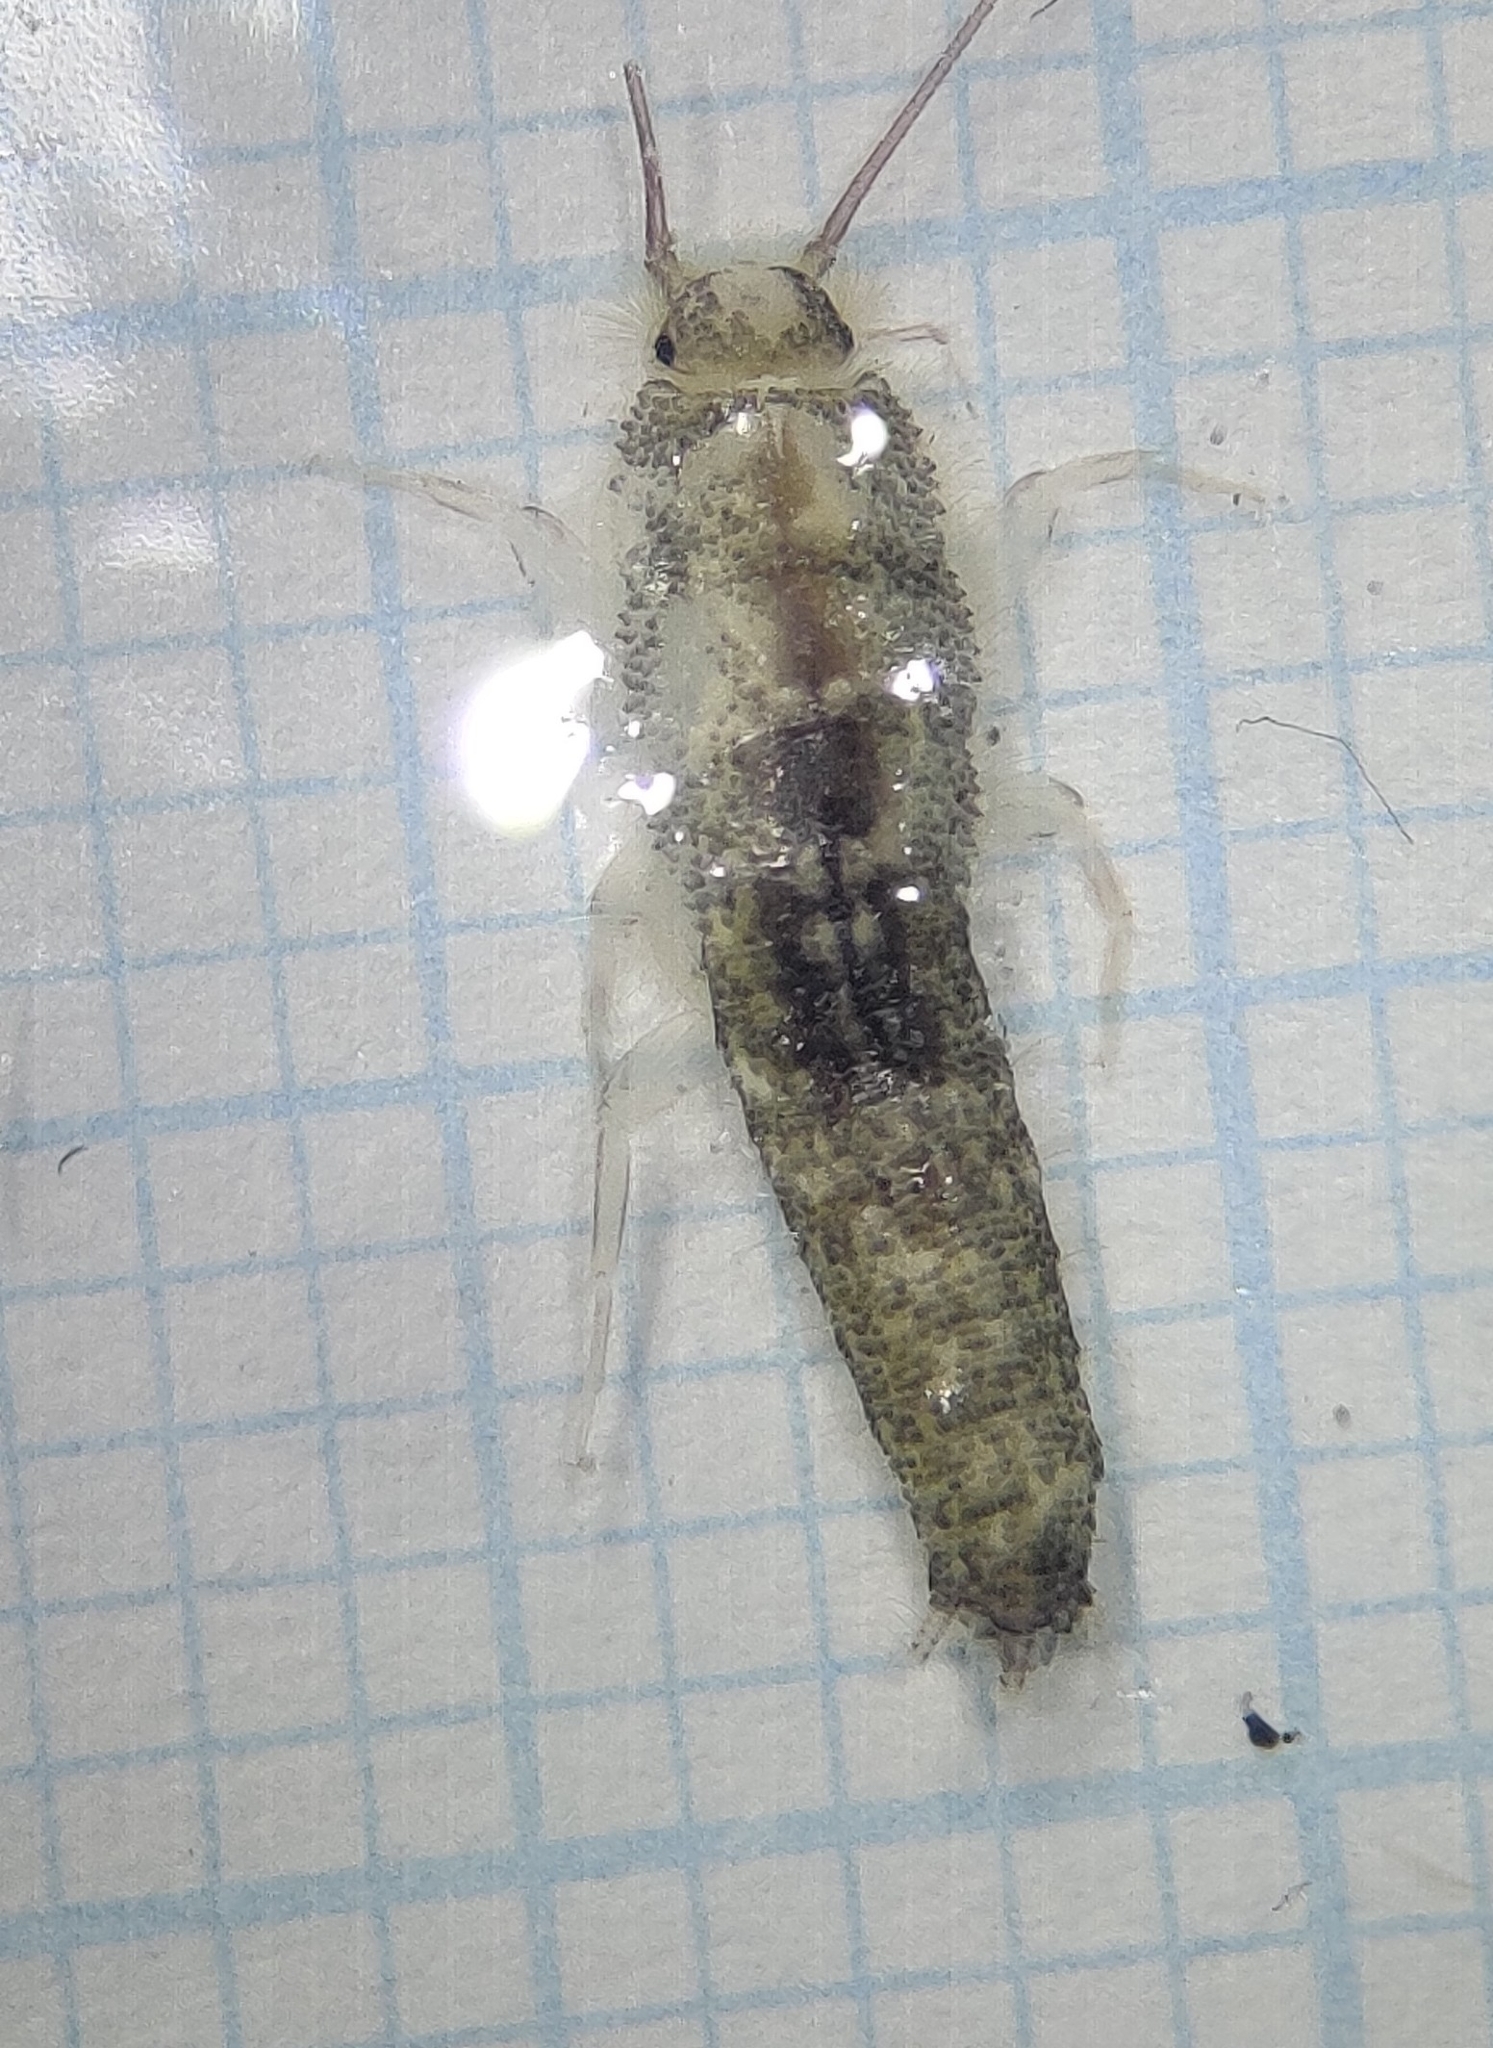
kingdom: Animalia
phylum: Arthropoda
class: Insecta
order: Zygentoma
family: Lepismatidae
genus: Ctenolepisma
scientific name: Ctenolepisma longicaudatum
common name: Silverfish
